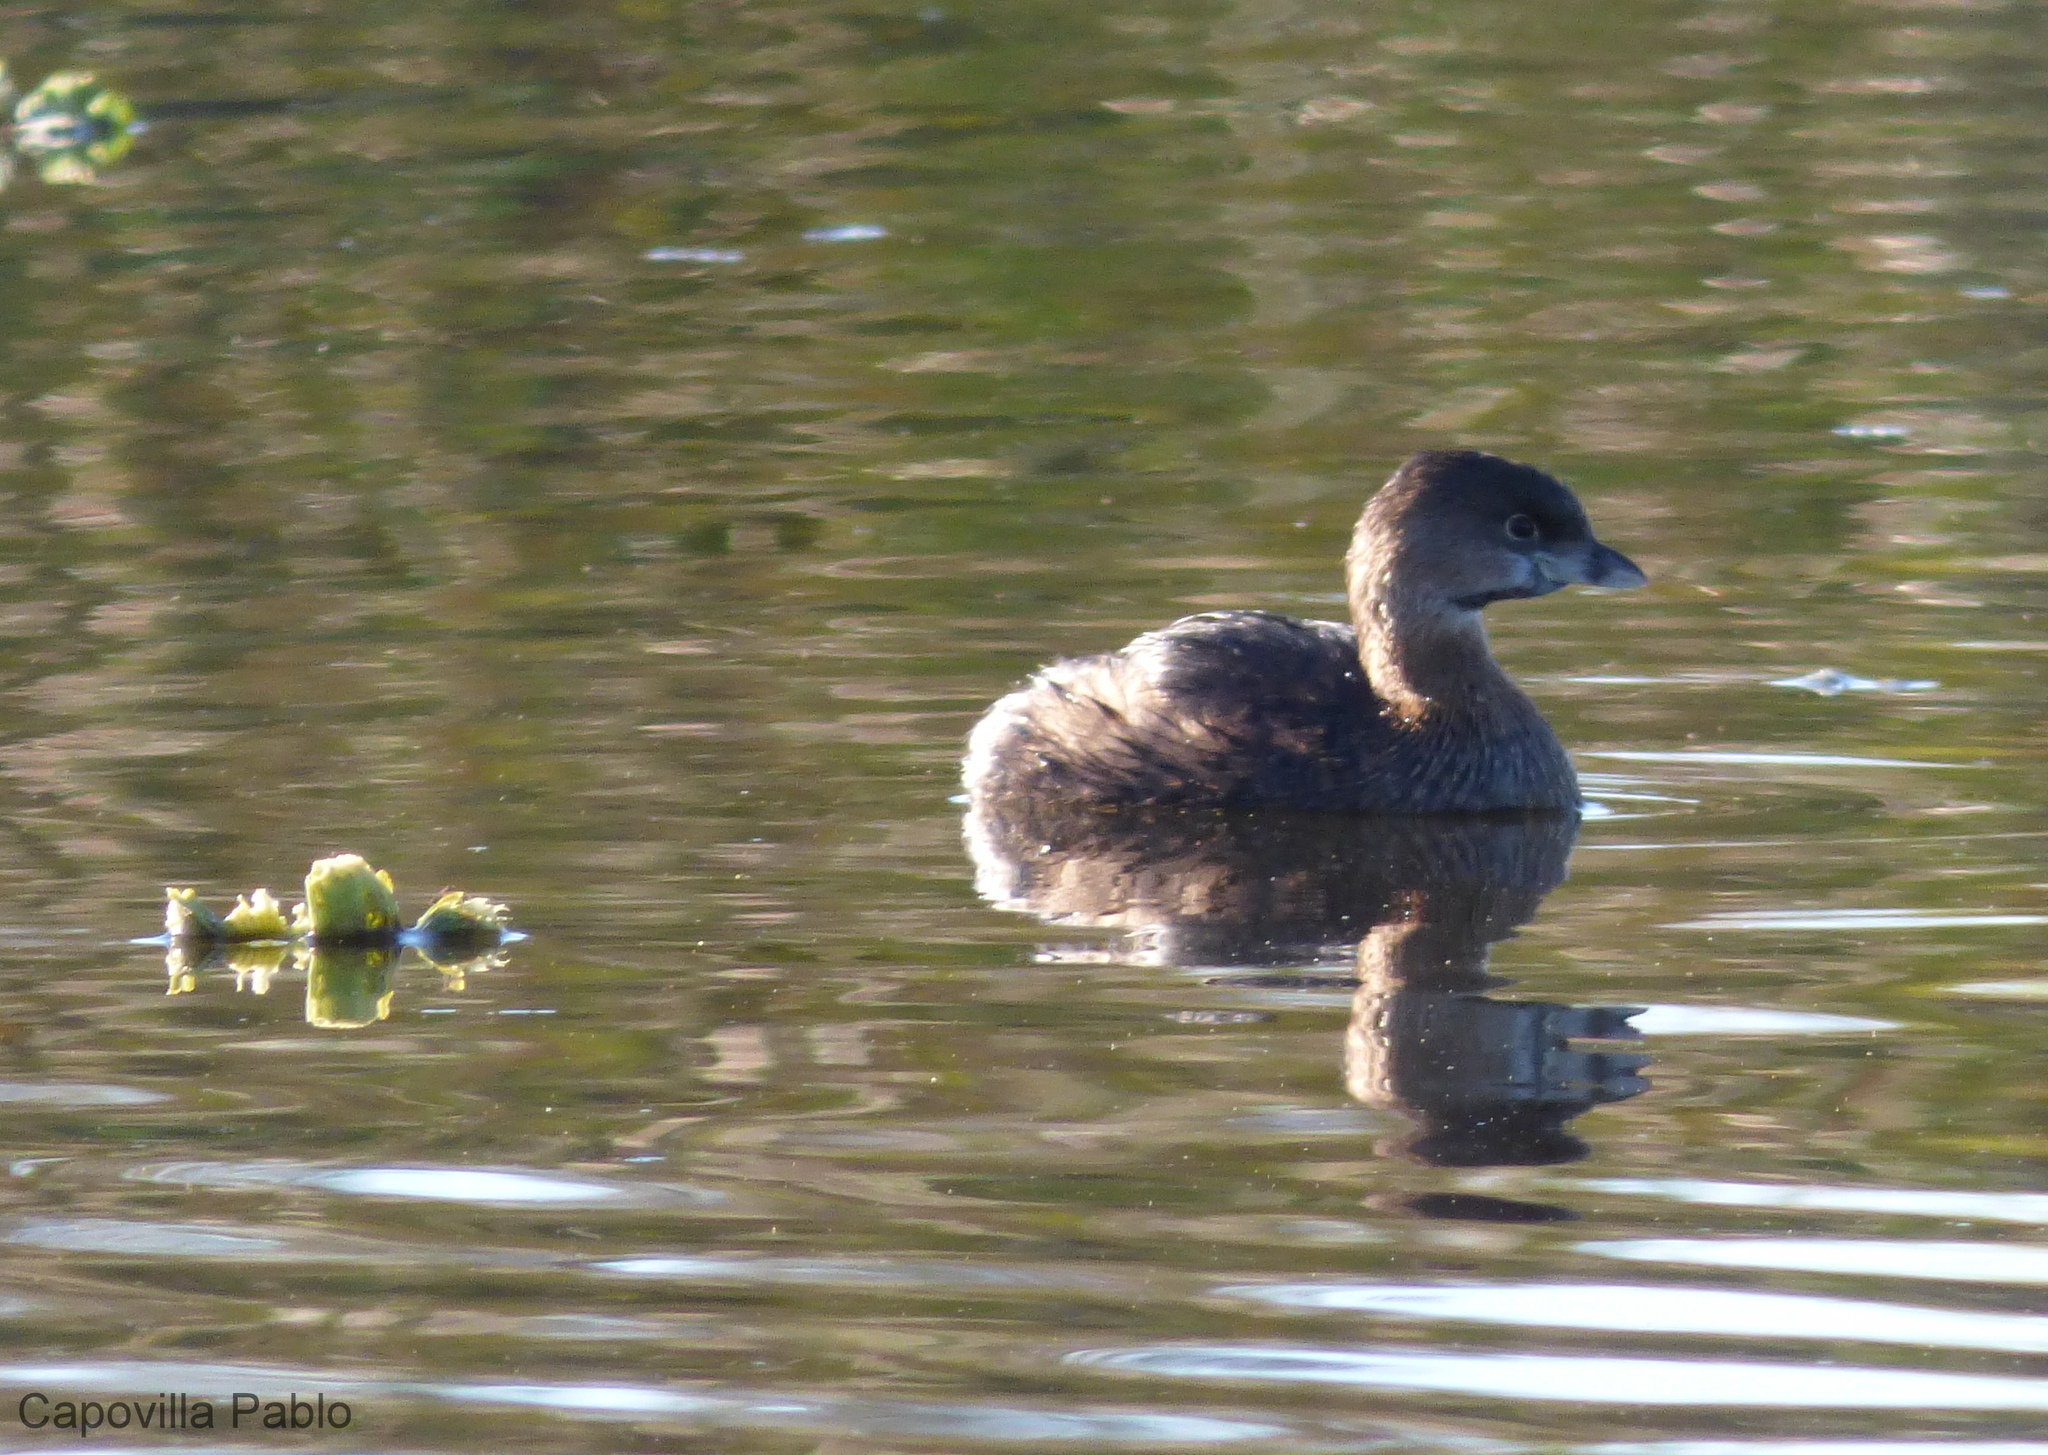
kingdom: Animalia
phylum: Chordata
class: Aves
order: Podicipediformes
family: Podicipedidae
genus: Podilymbus
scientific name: Podilymbus podiceps
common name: Pied-billed grebe
